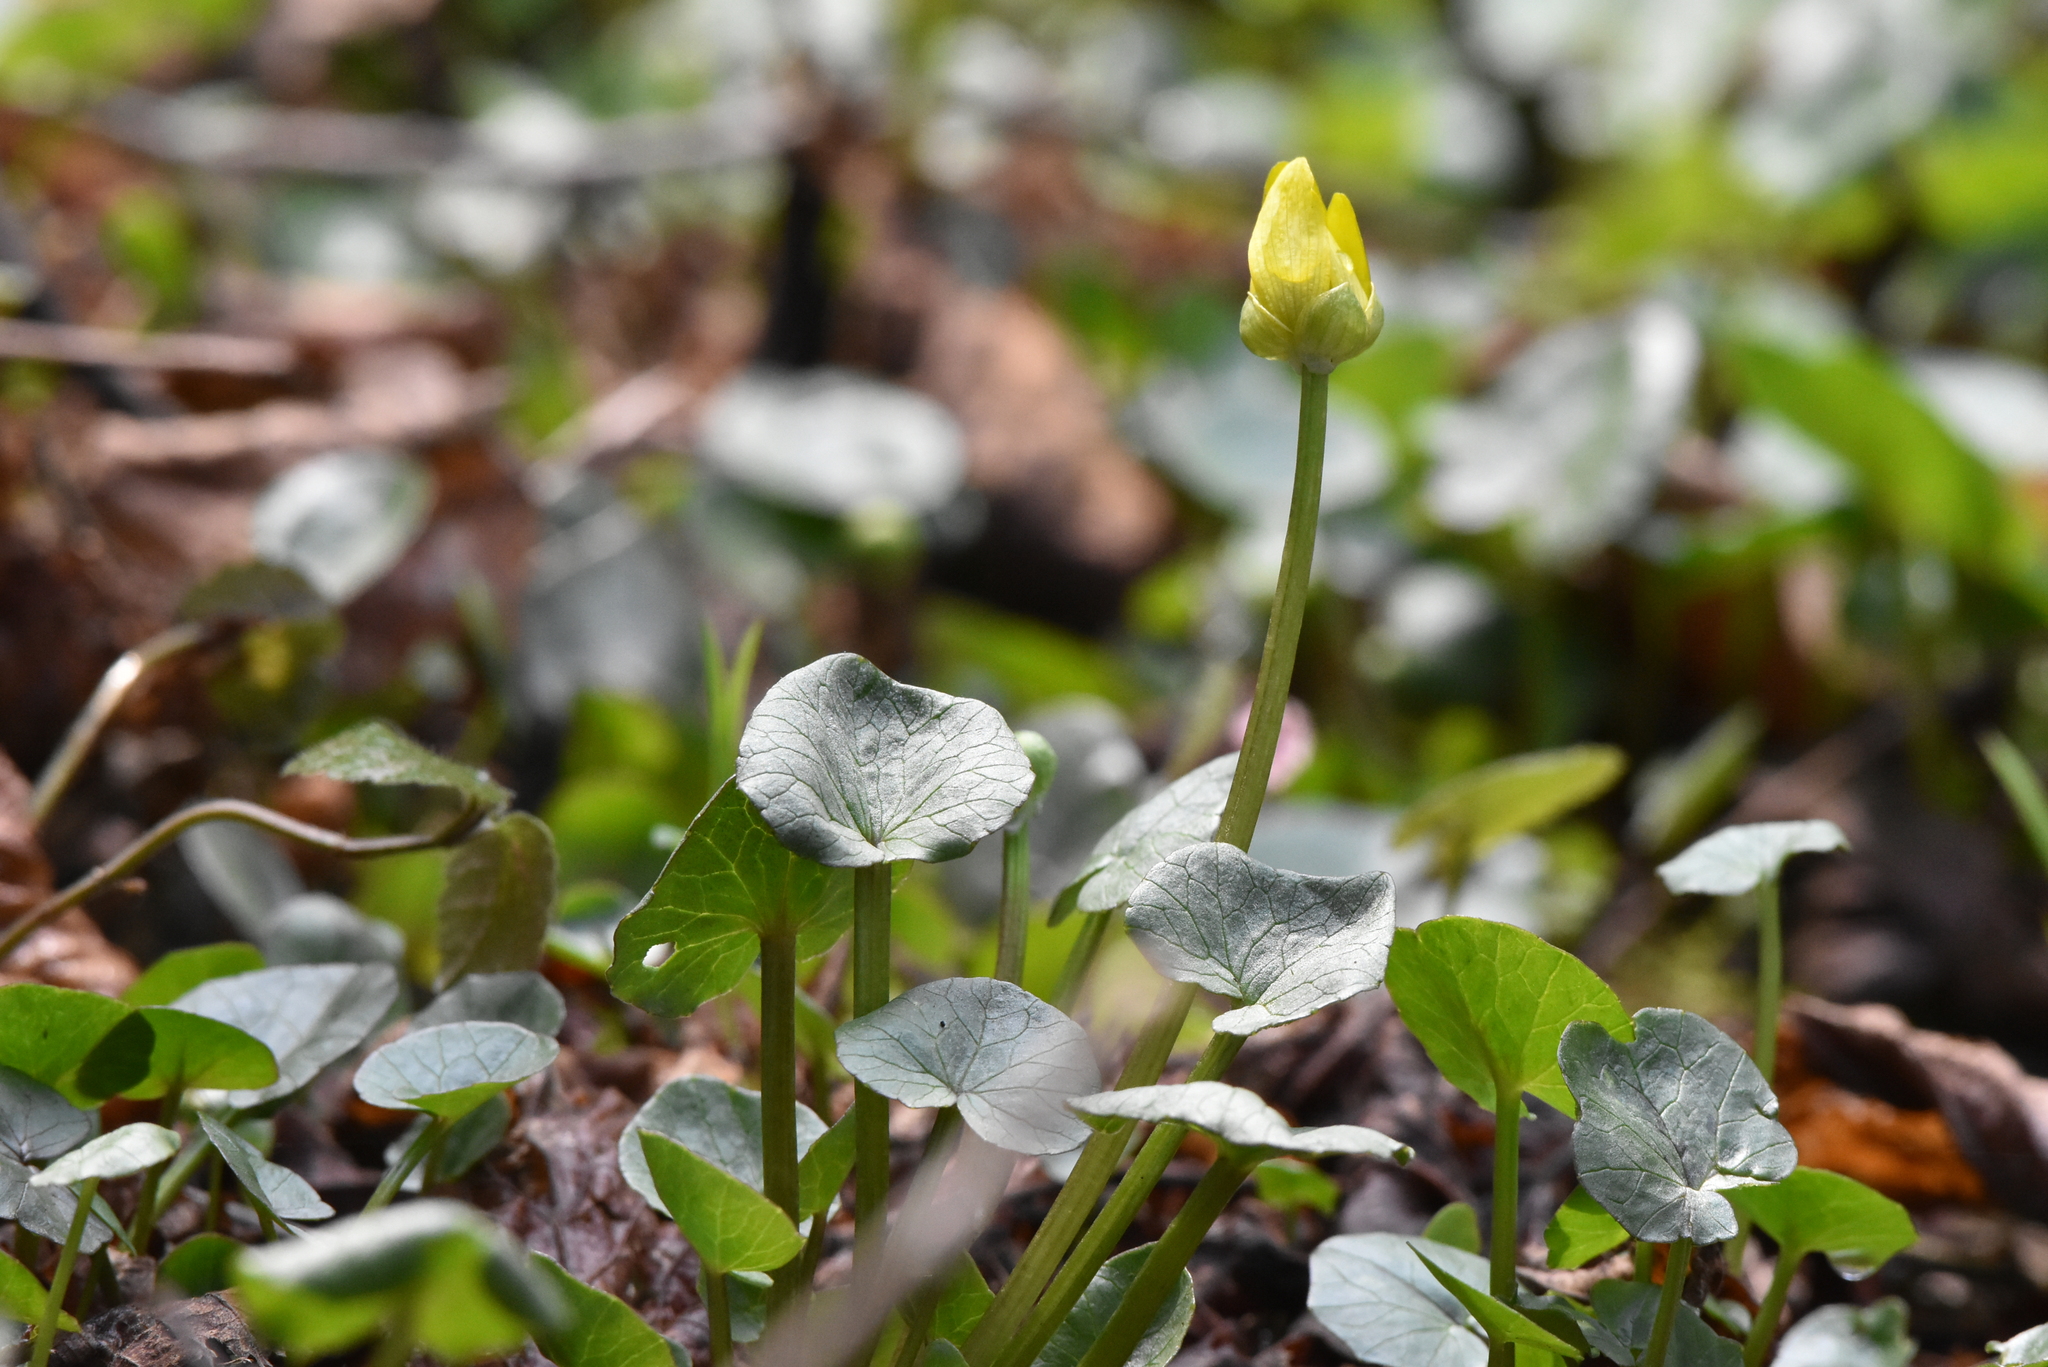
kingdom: Plantae
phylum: Tracheophyta
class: Magnoliopsida
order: Ranunculales
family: Ranunculaceae
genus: Ficaria
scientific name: Ficaria verna
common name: Lesser celandine
